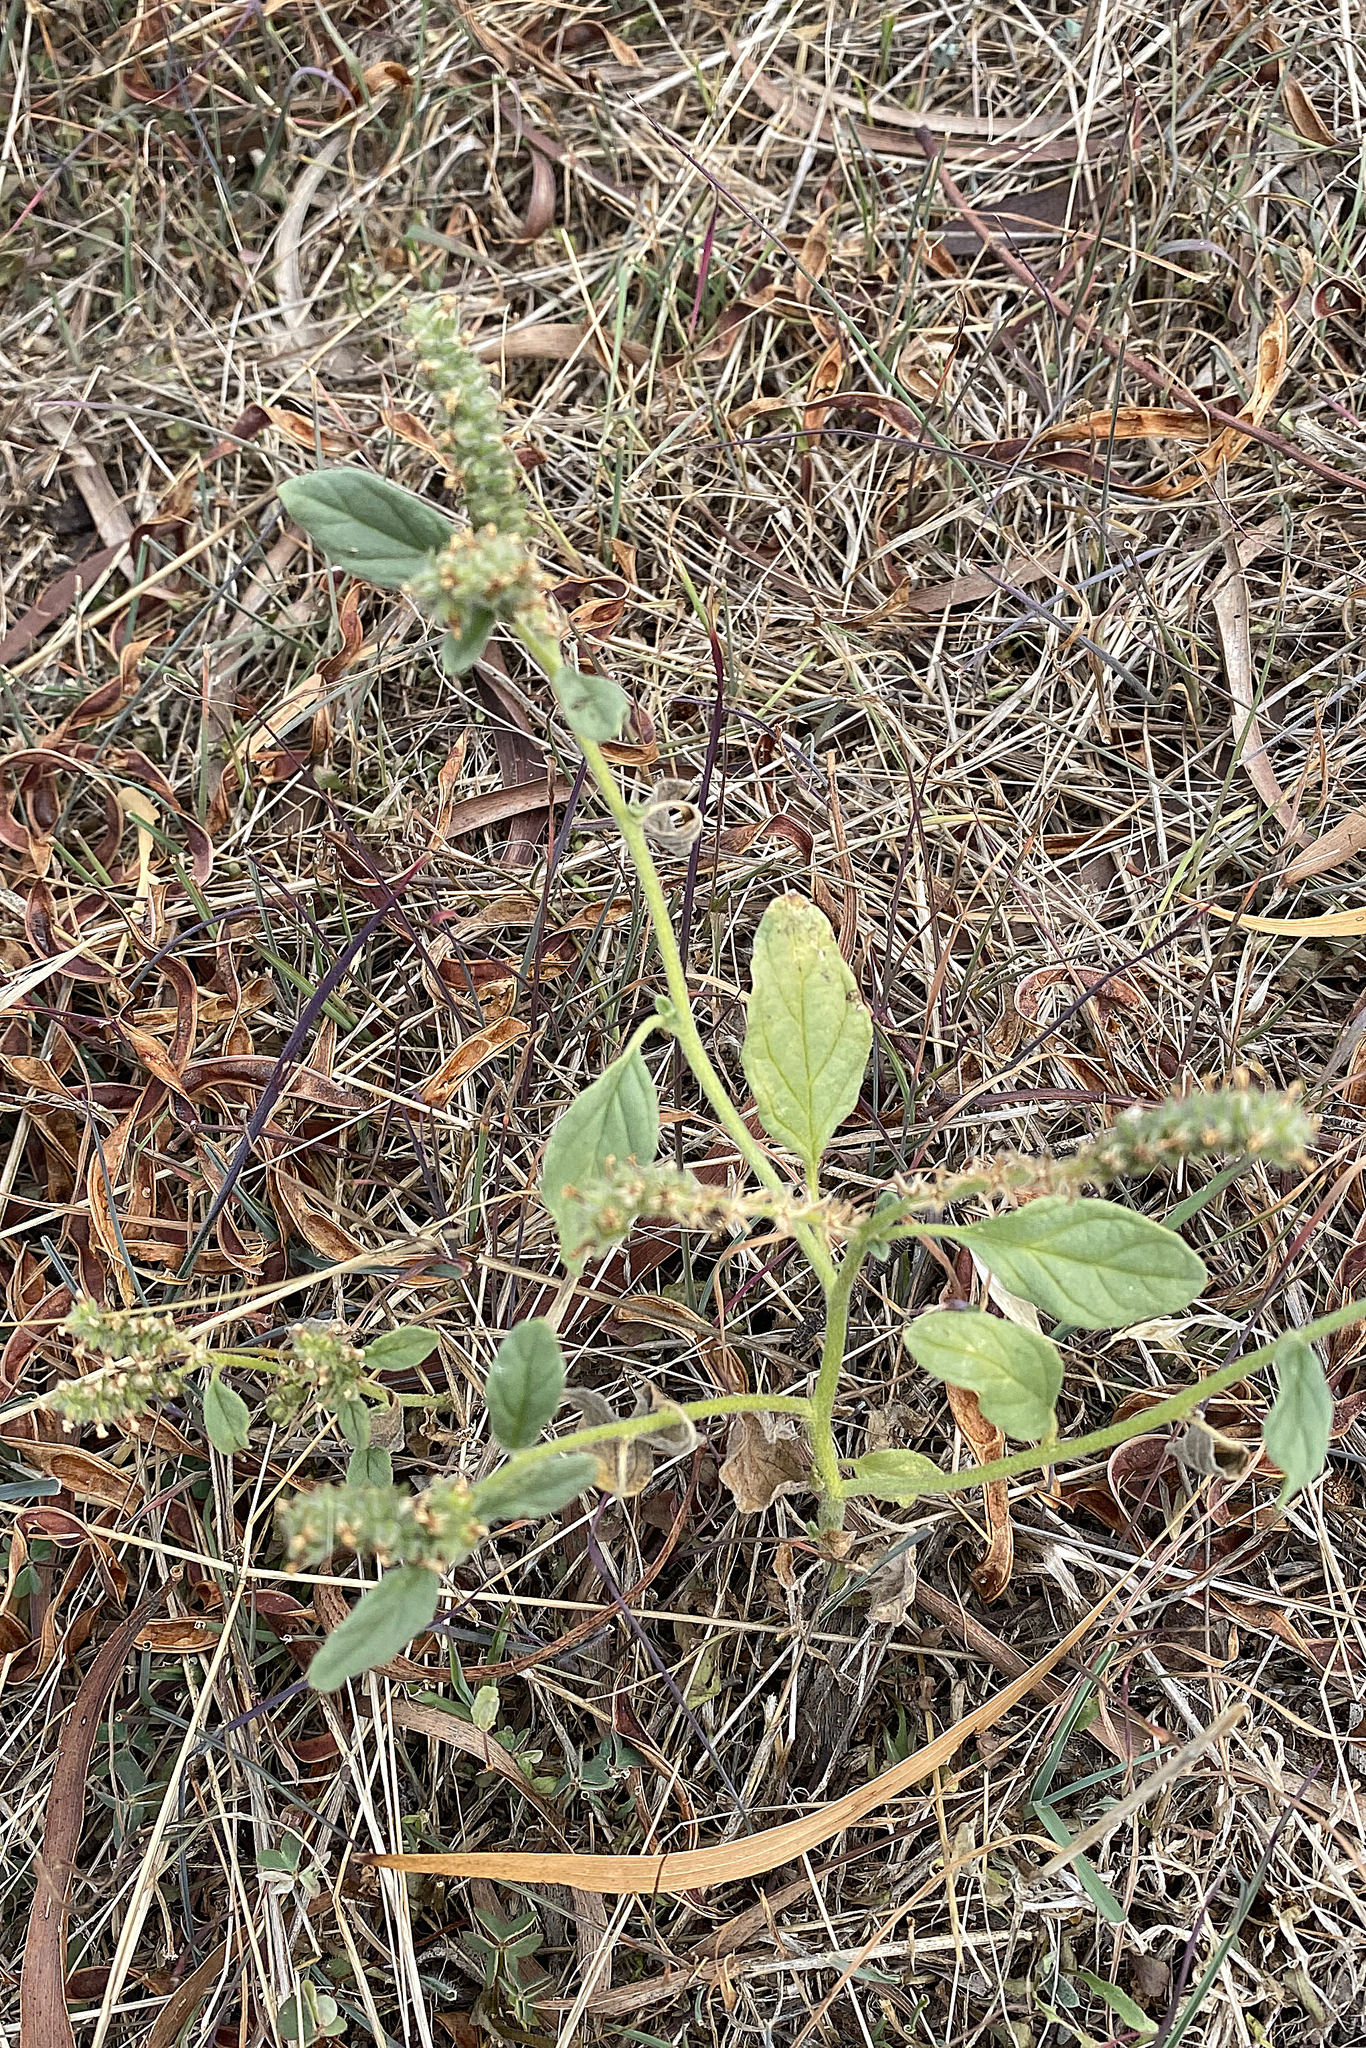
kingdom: Plantae
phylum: Tracheophyta
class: Magnoliopsida
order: Boraginales
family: Heliotropiaceae
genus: Heliotropium
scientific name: Heliotropium europaeum
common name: European heliotrope
